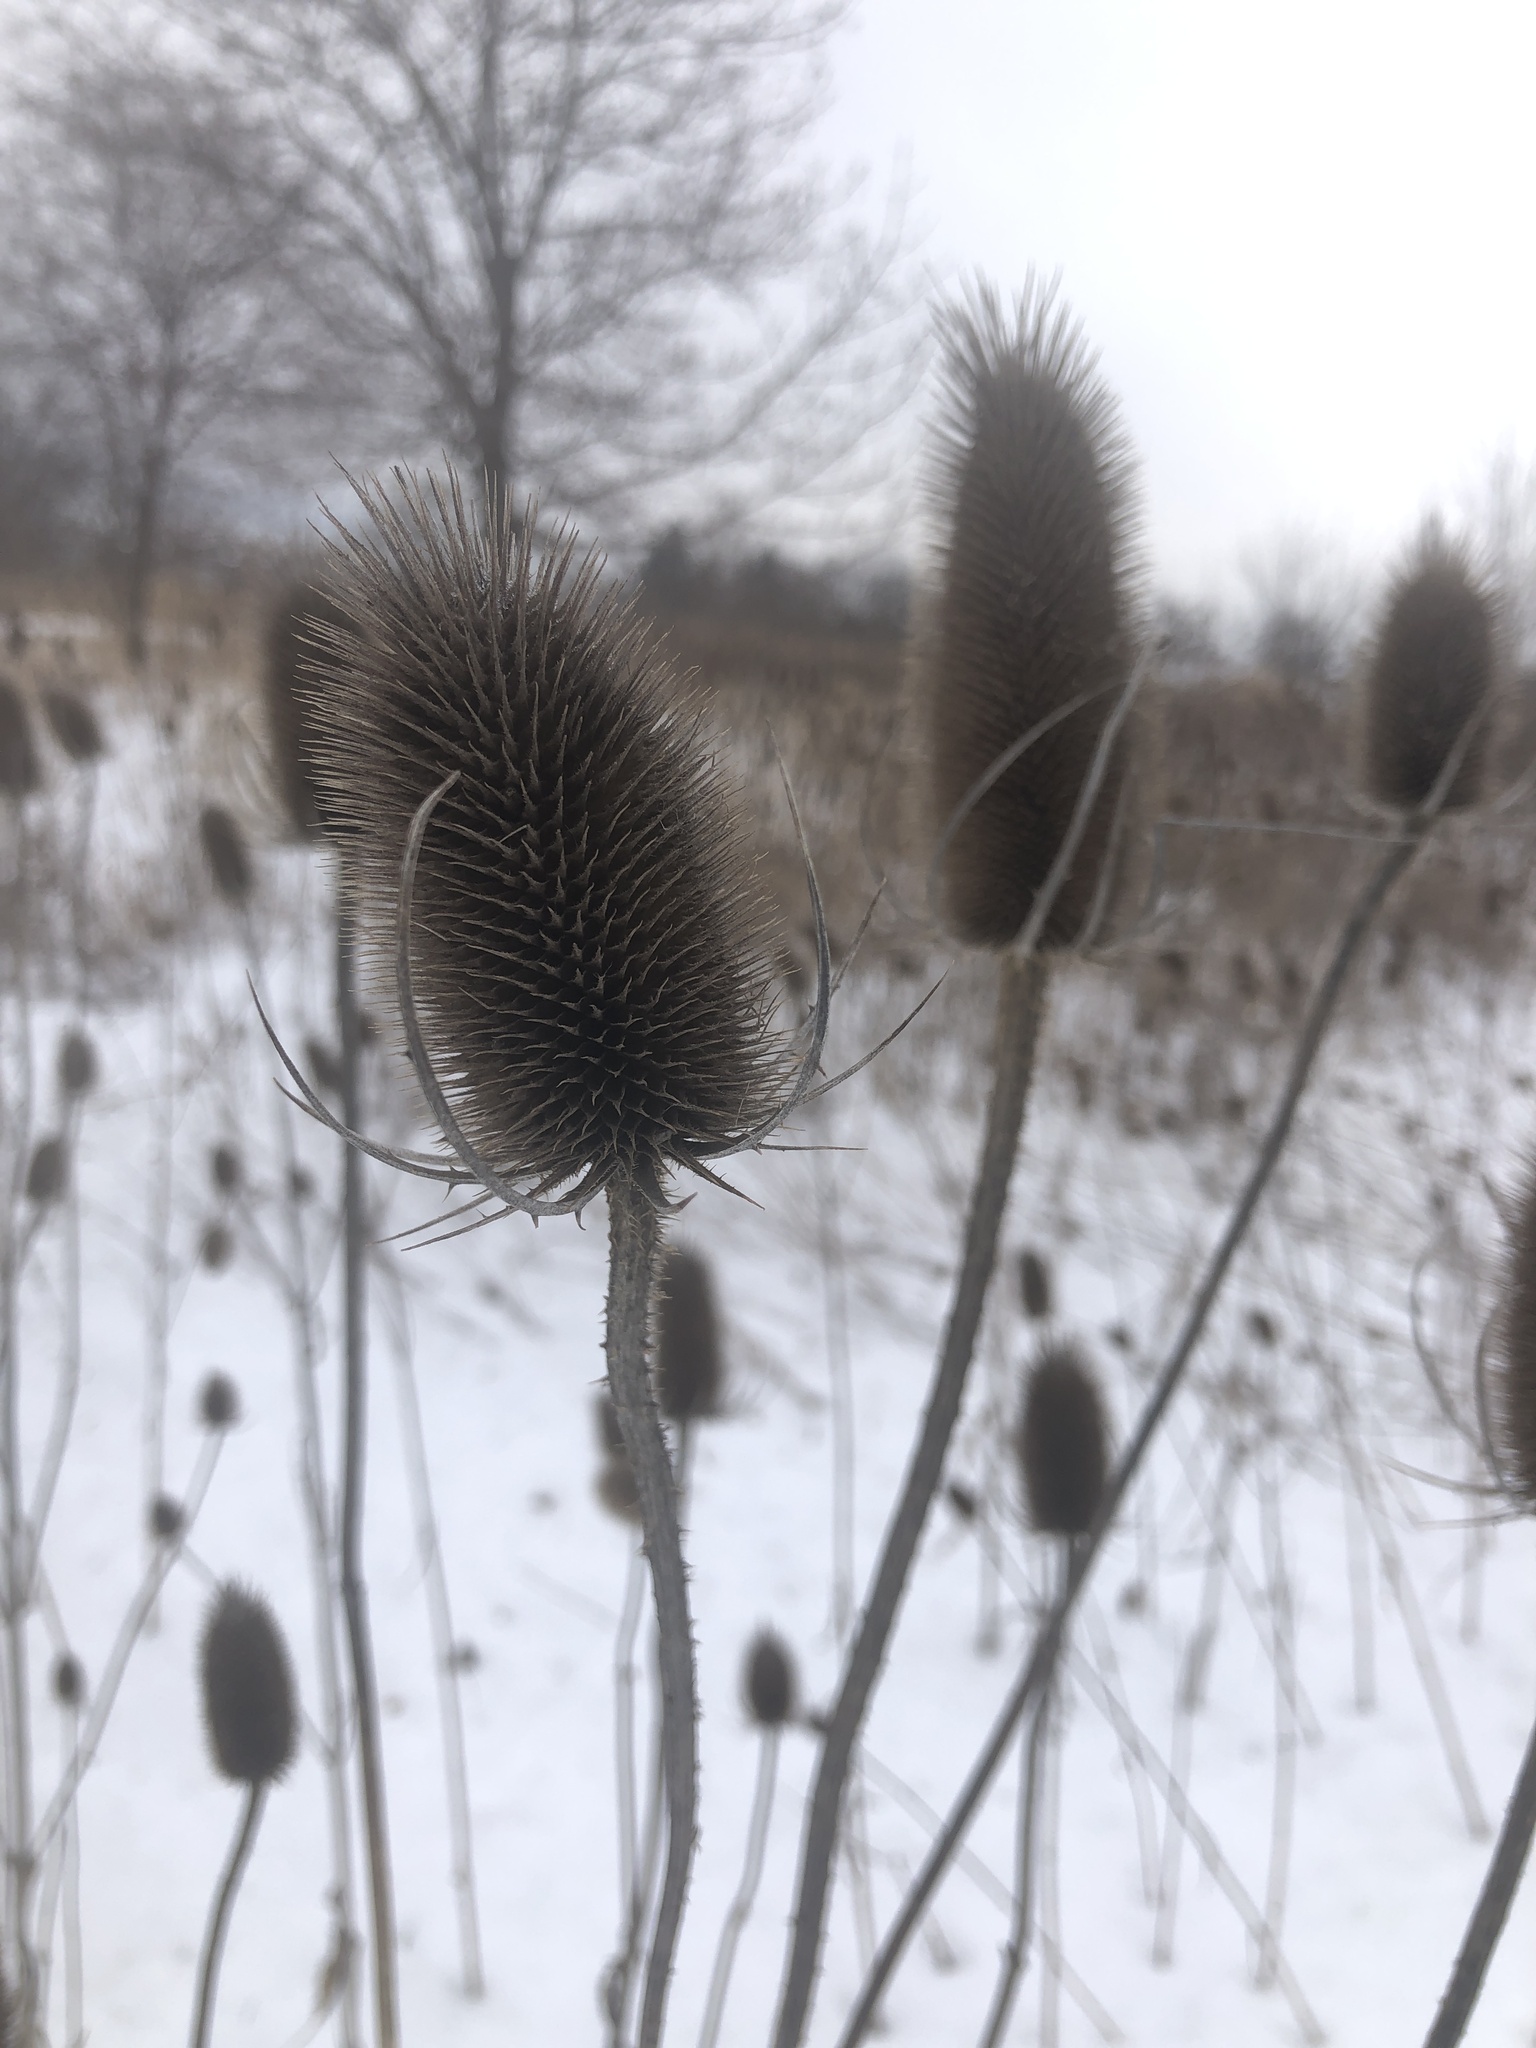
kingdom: Plantae
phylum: Tracheophyta
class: Magnoliopsida
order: Dipsacales
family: Caprifoliaceae
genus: Dipsacus
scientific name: Dipsacus fullonum
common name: Teasel
